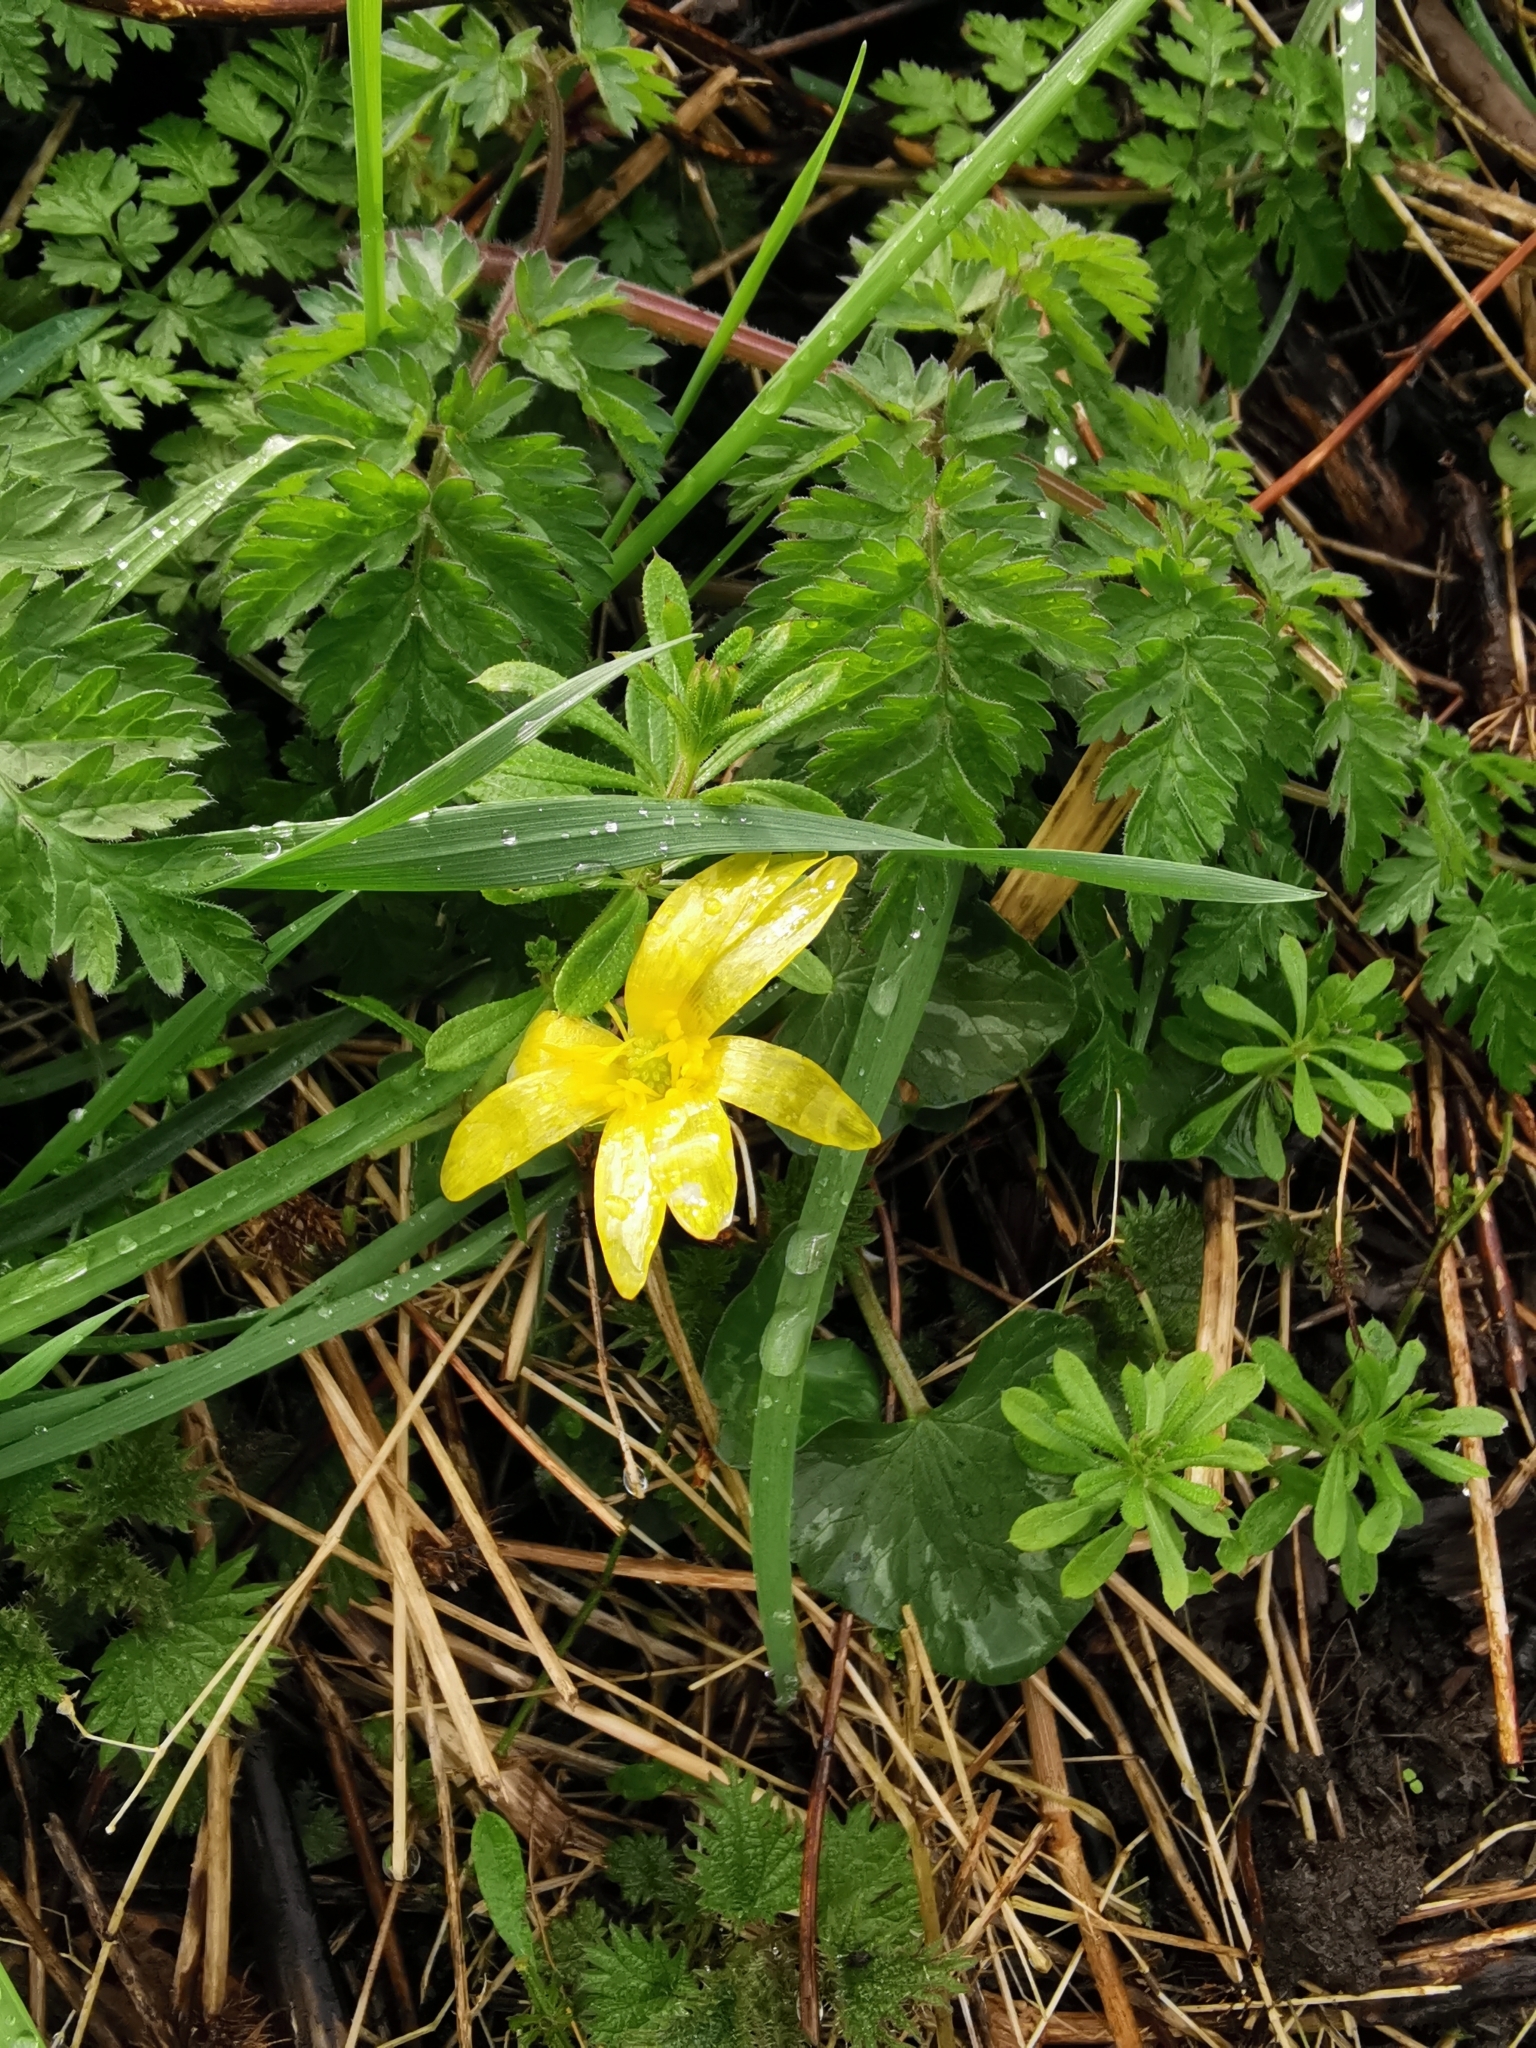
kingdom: Plantae
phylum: Tracheophyta
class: Magnoliopsida
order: Ranunculales
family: Ranunculaceae
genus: Ficaria
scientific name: Ficaria verna
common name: Lesser celandine
